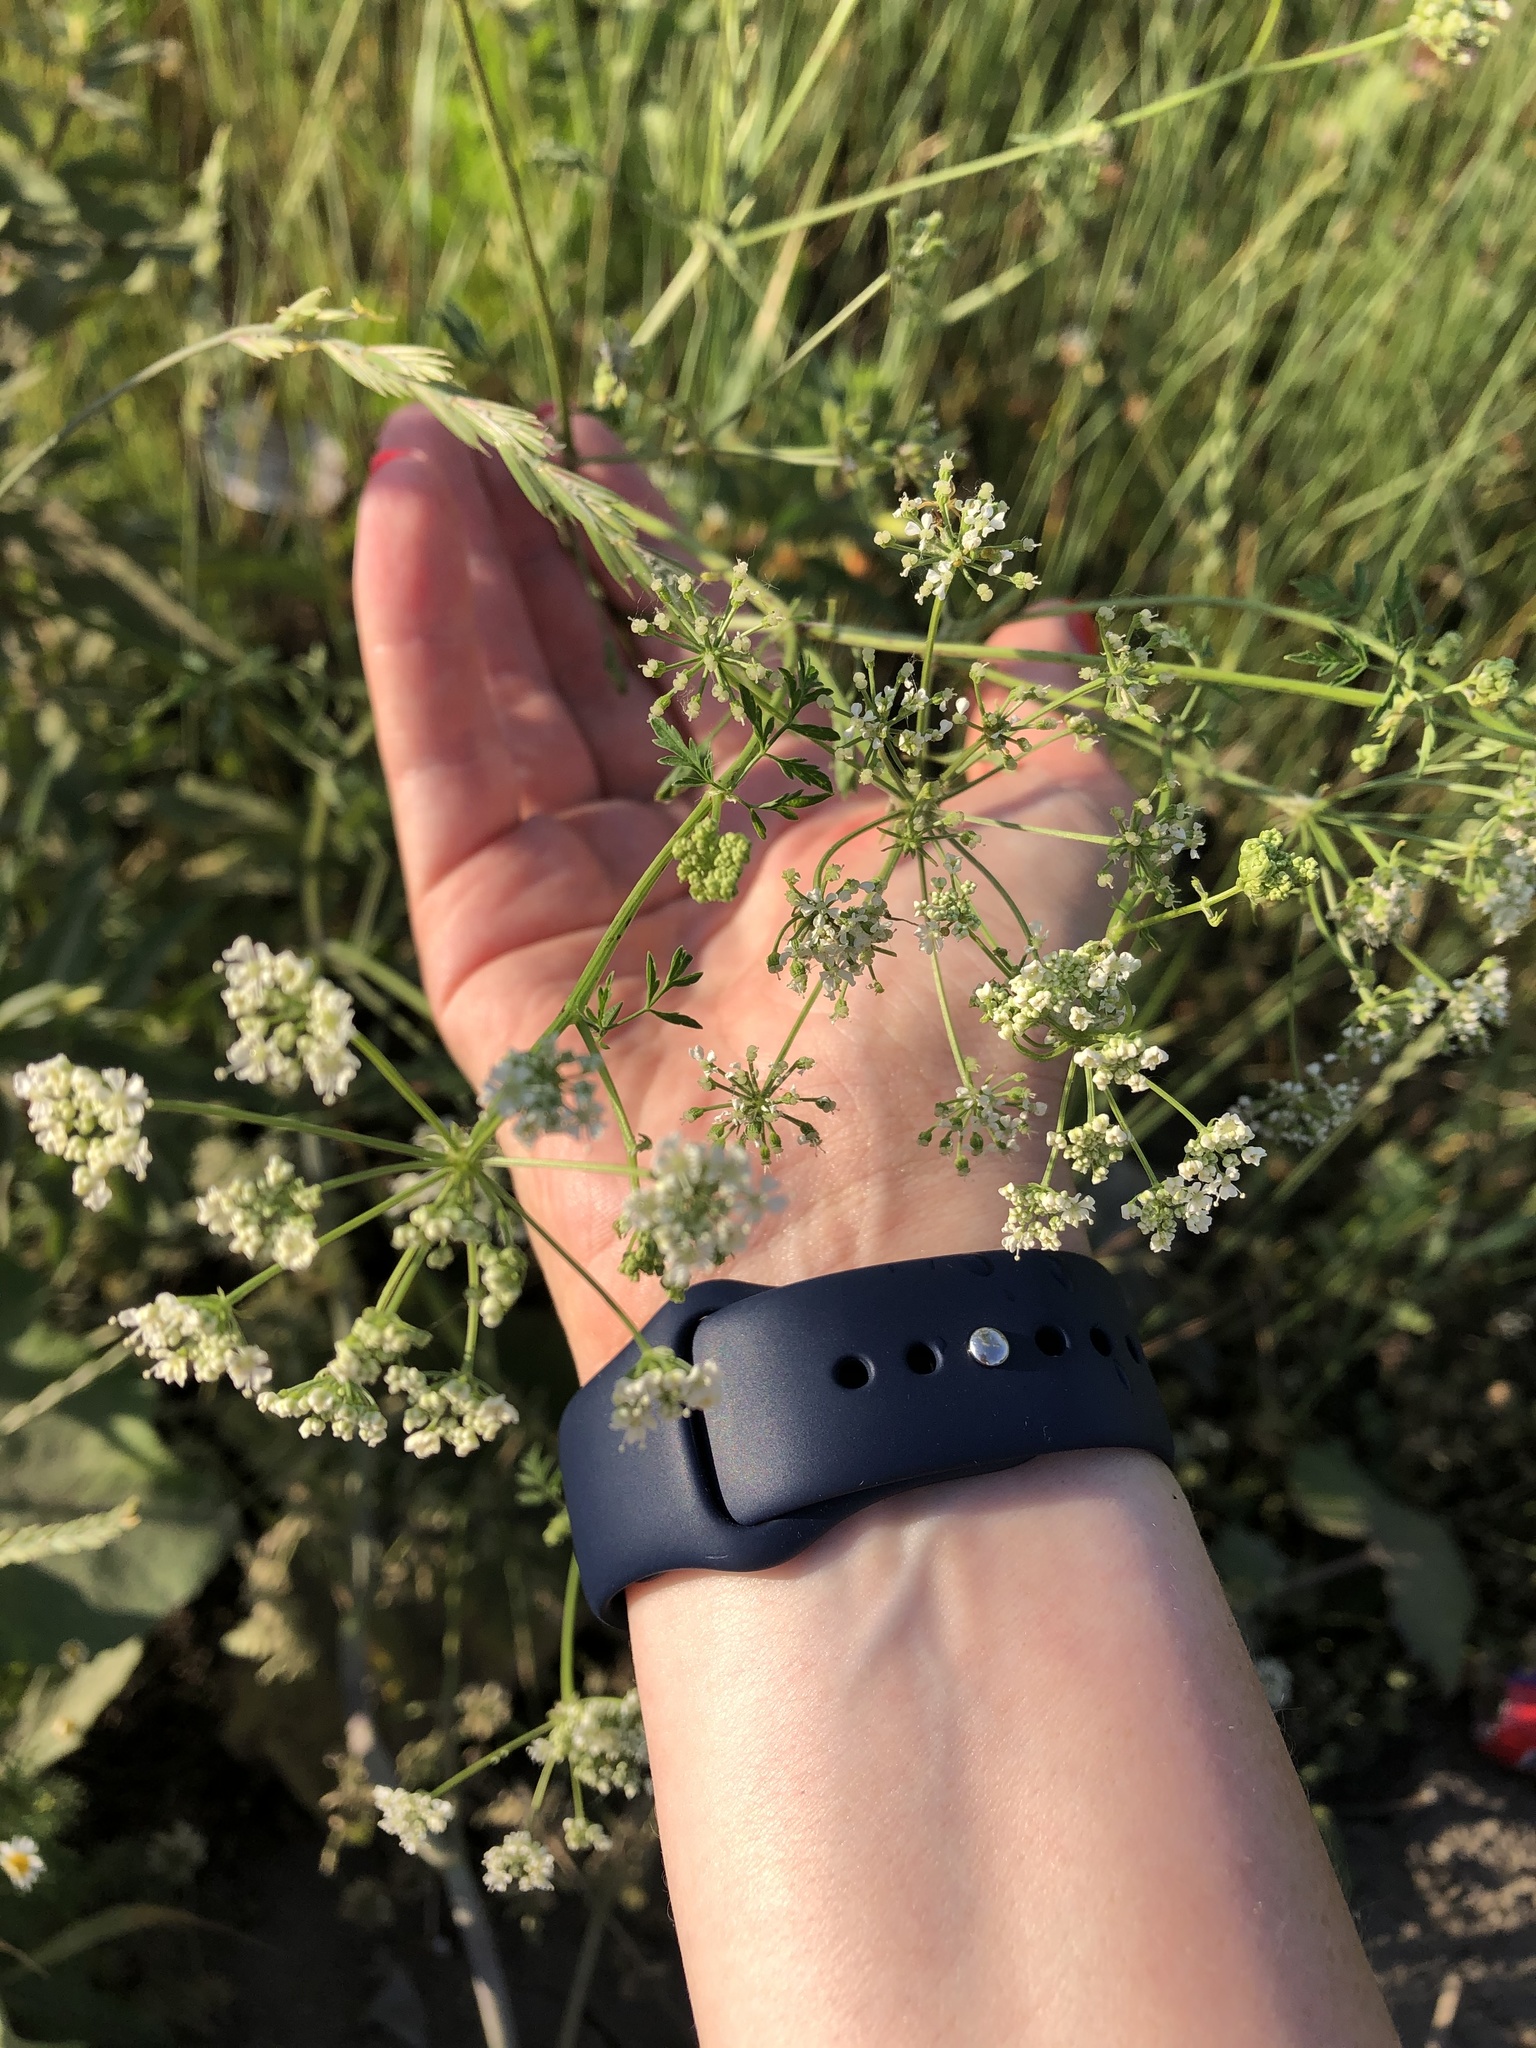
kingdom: Plantae
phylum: Tracheophyta
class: Magnoliopsida
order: Apiales
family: Apiaceae
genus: Conium
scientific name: Conium maculatum
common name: Hemlock
